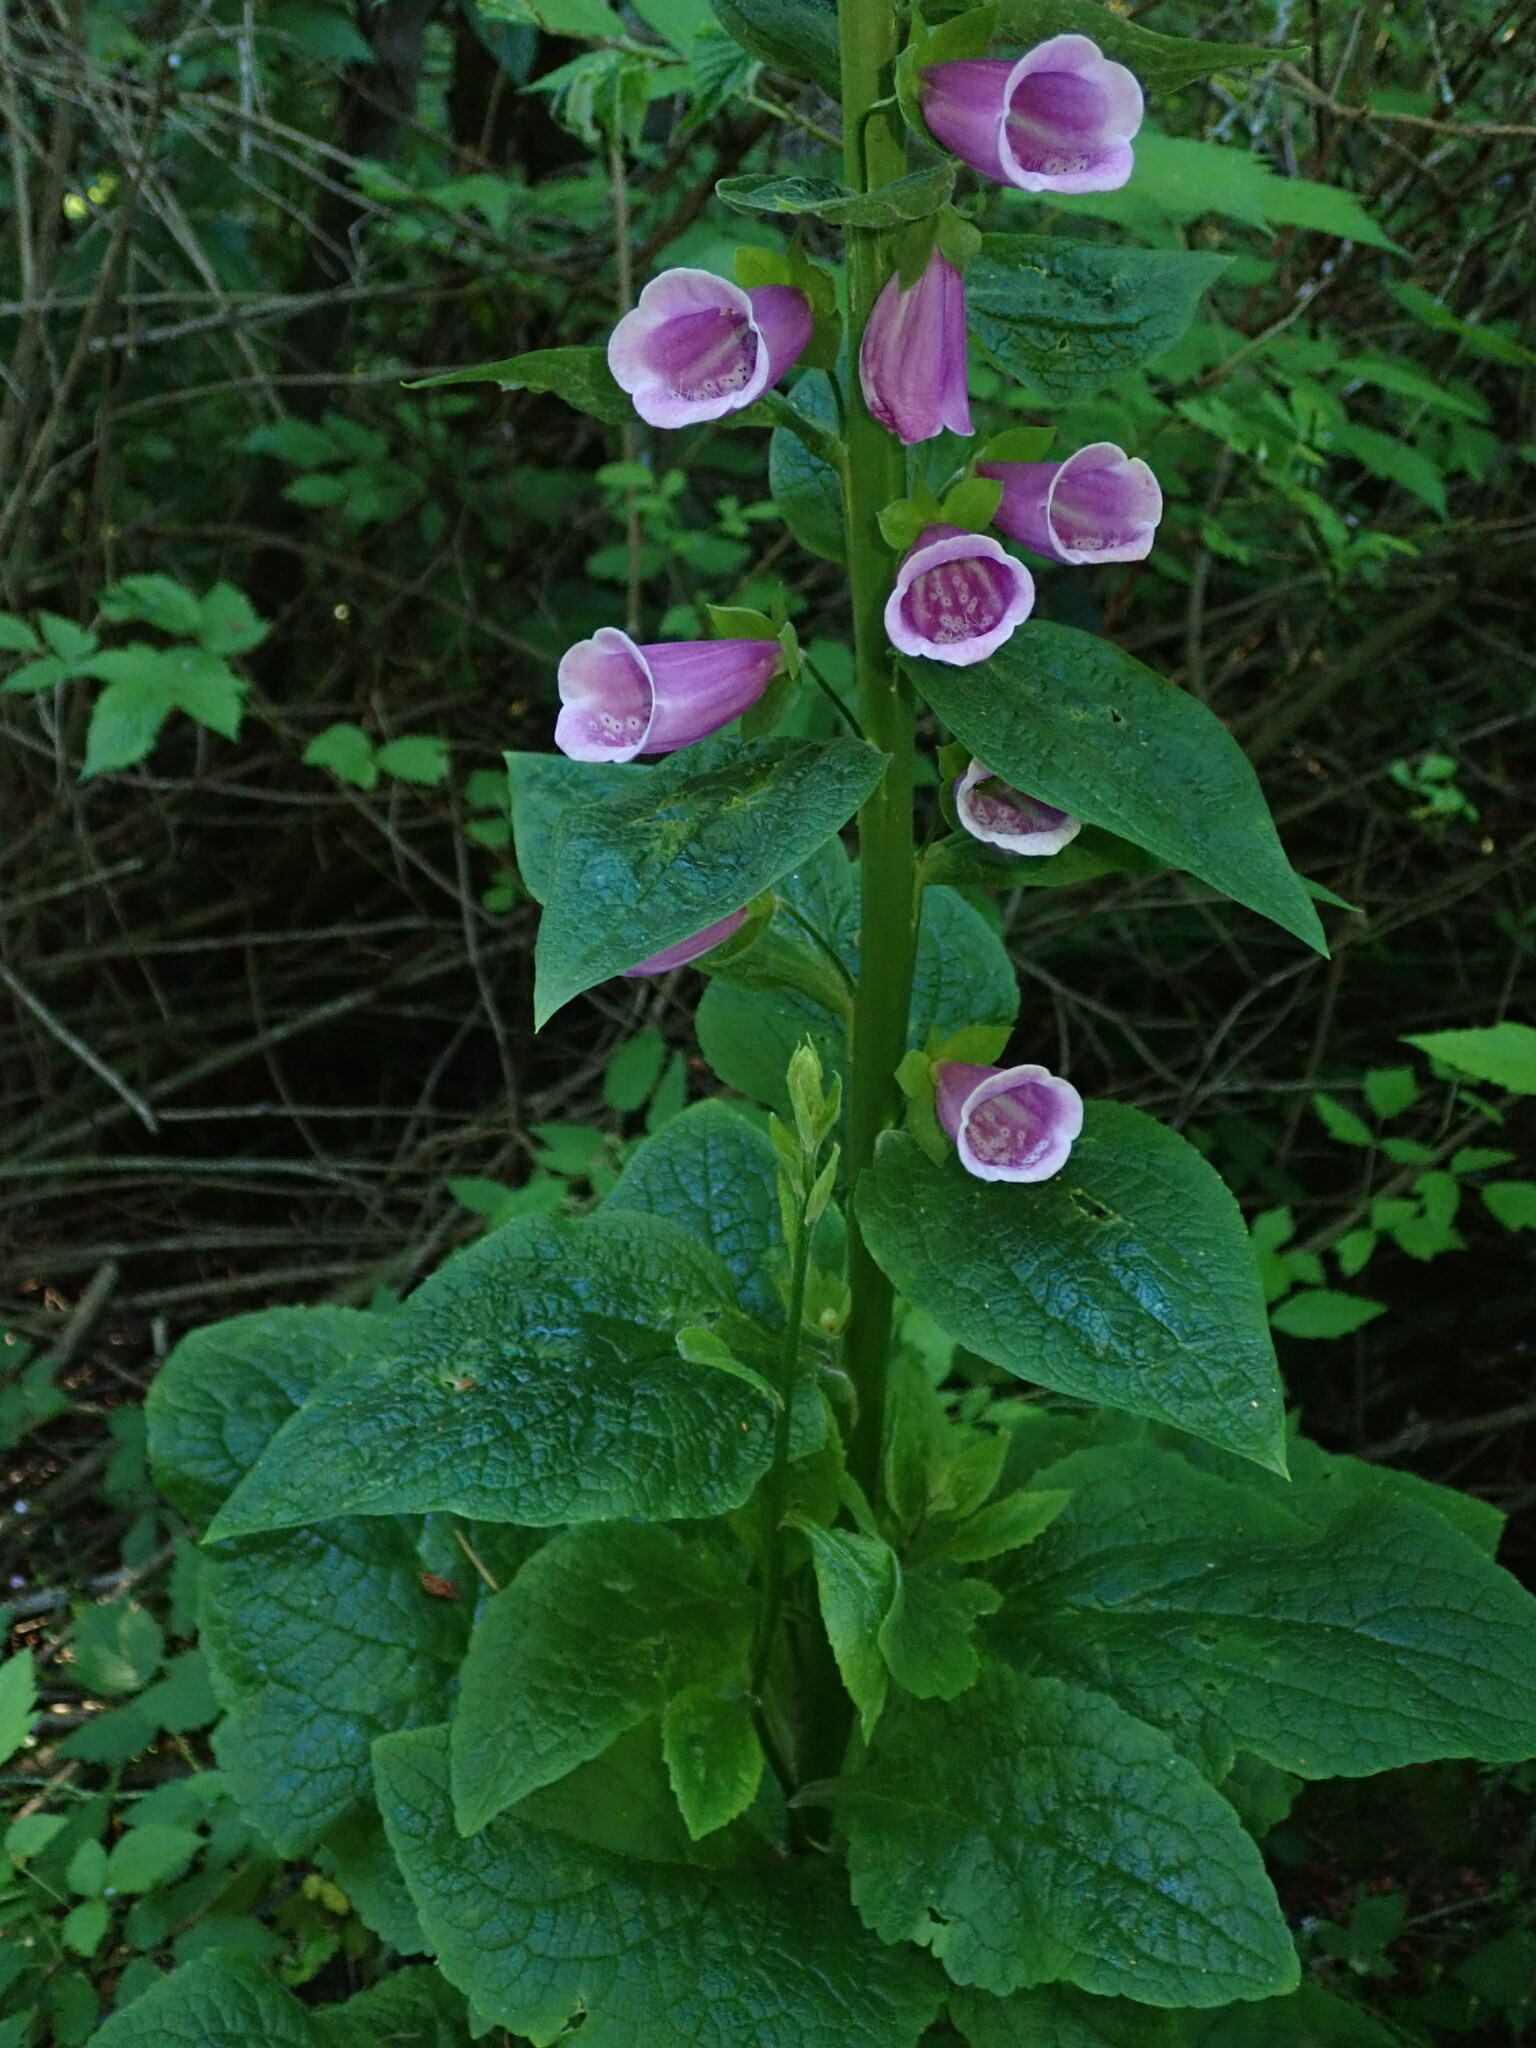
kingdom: Plantae
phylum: Tracheophyta
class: Magnoliopsida
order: Lamiales
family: Plantaginaceae
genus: Digitalis
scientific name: Digitalis purpurea
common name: Foxglove
